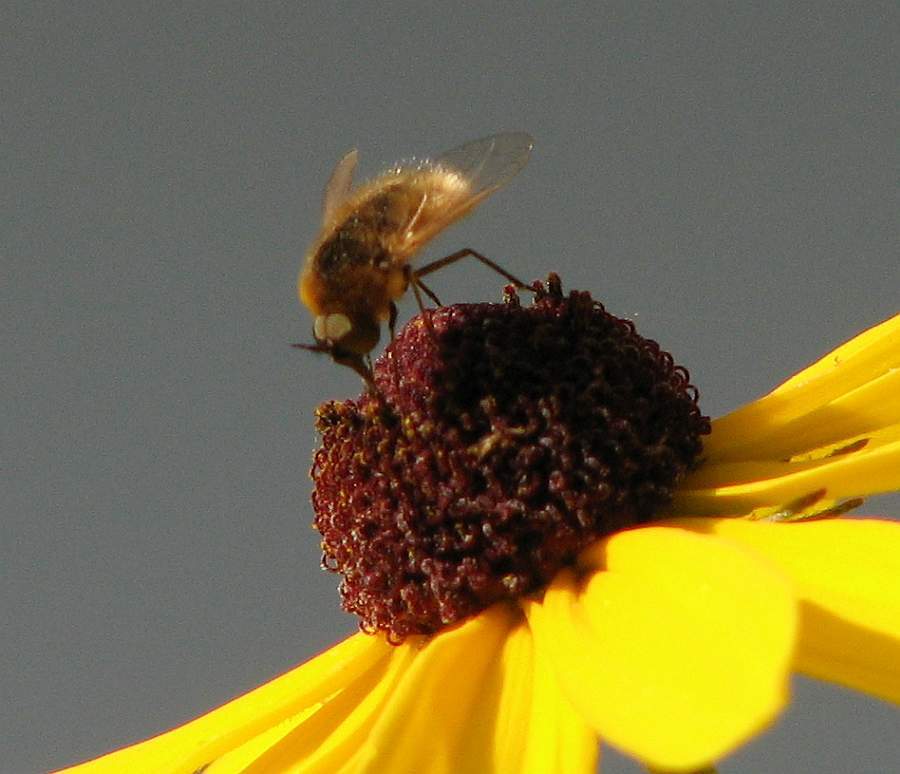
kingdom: Animalia
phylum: Arthropoda
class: Insecta
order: Diptera
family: Bombyliidae
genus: Sparnopolius
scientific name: Sparnopolius confusus
